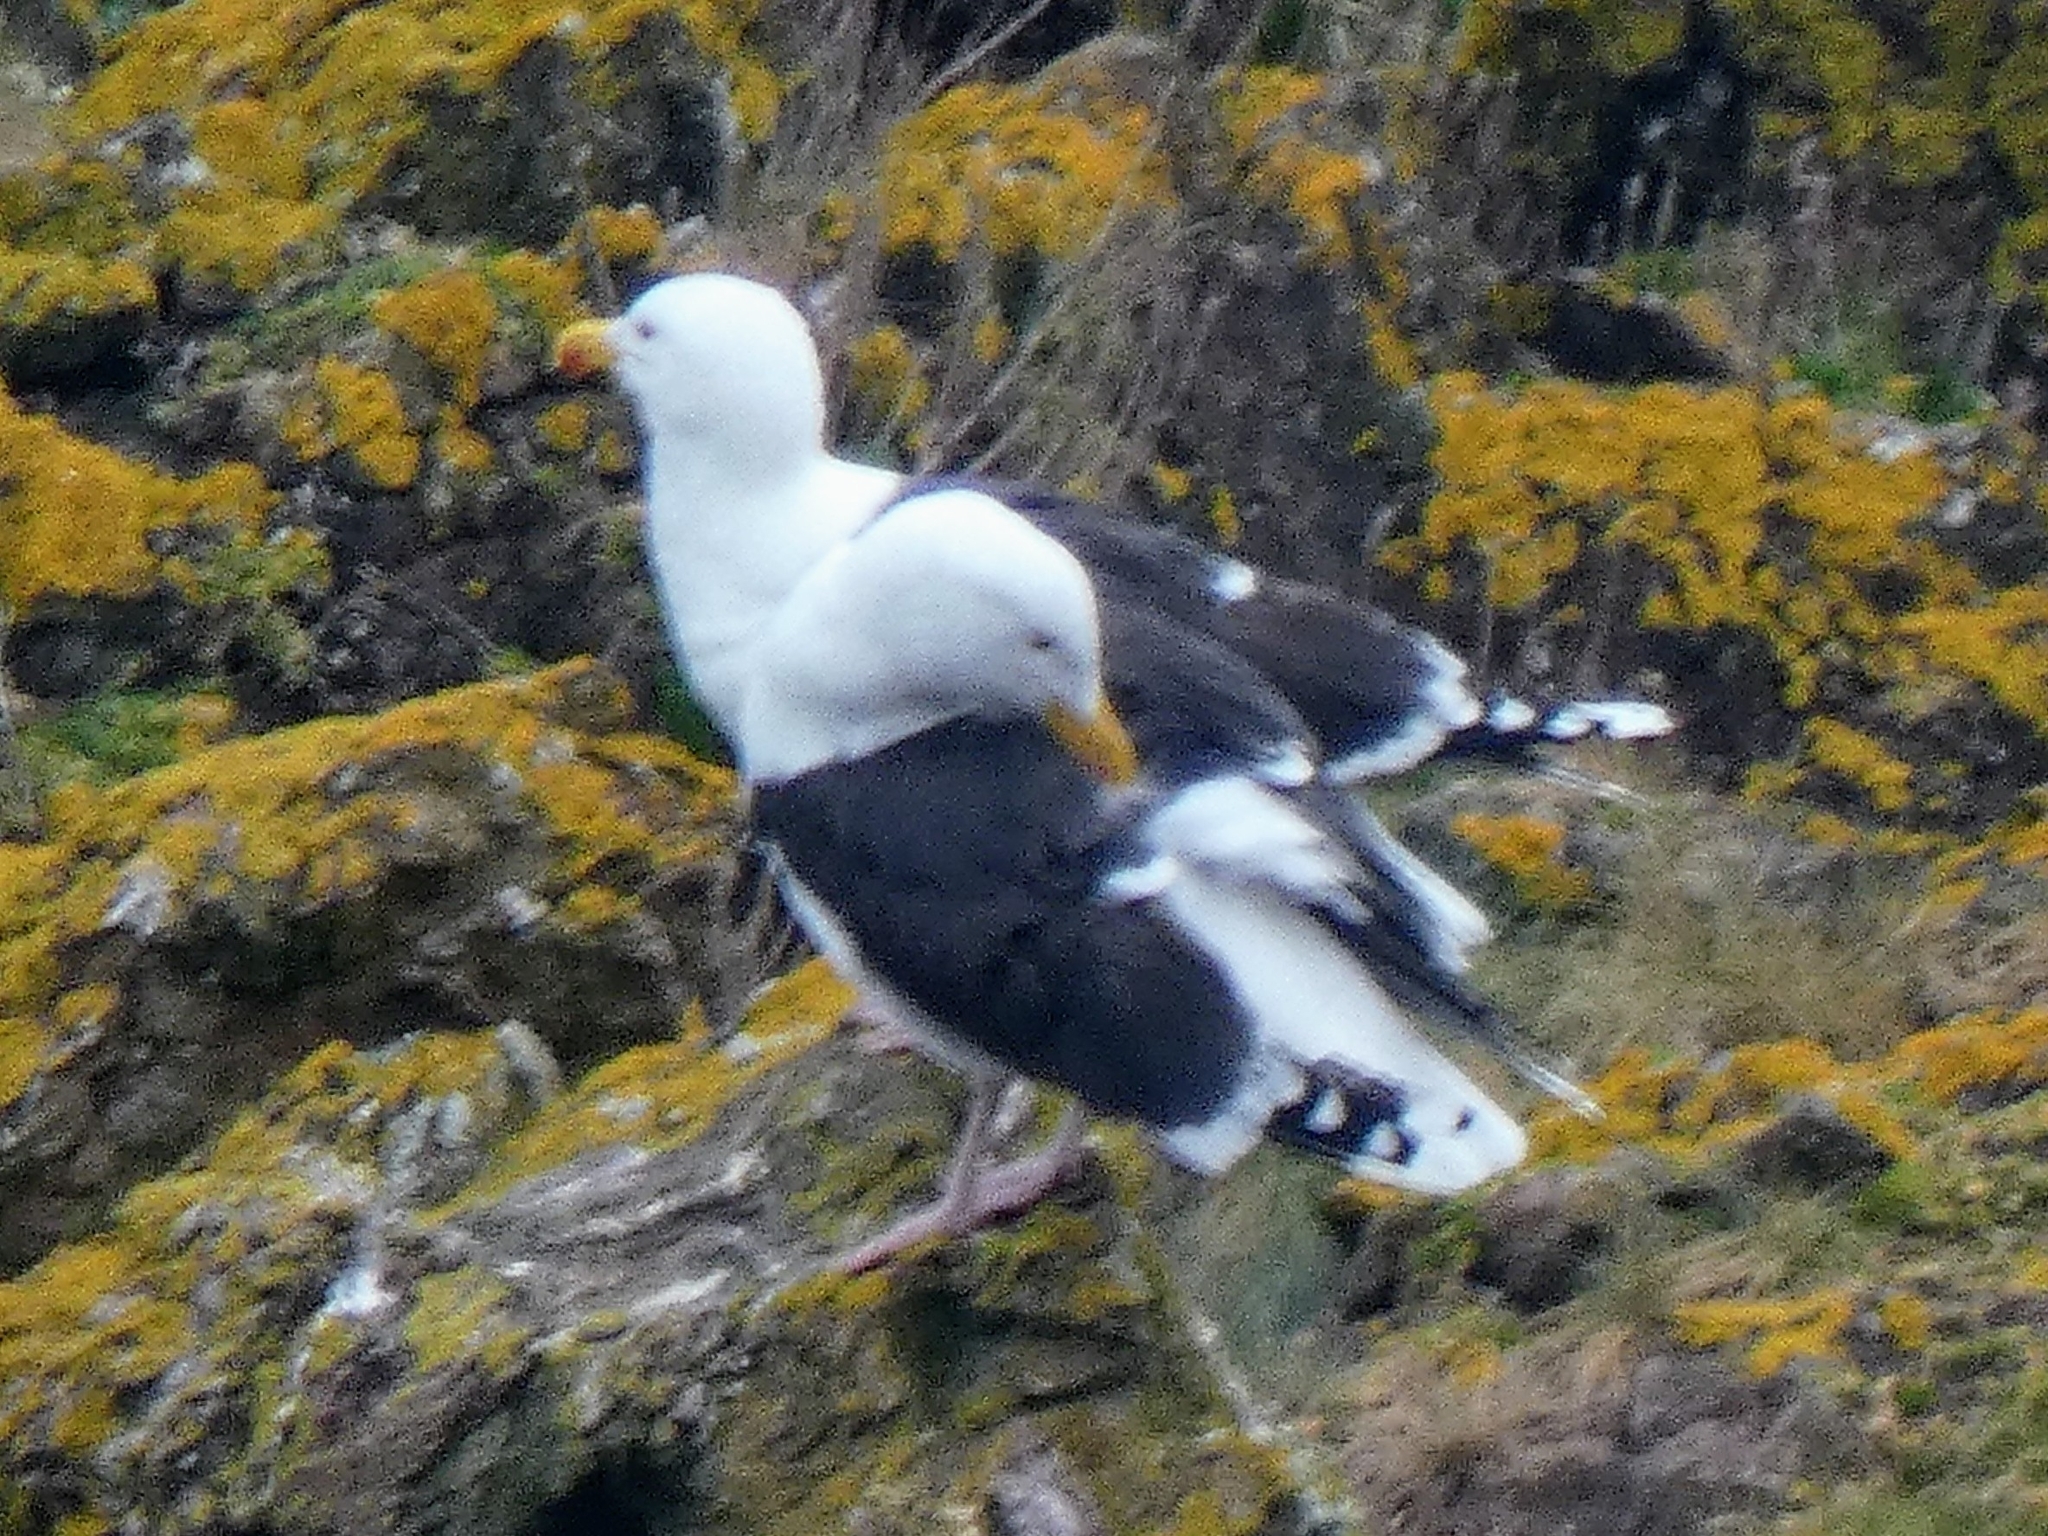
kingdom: Animalia
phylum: Chordata
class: Aves
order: Charadriiformes
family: Laridae
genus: Larus
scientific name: Larus marinus
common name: Great black-backed gull
